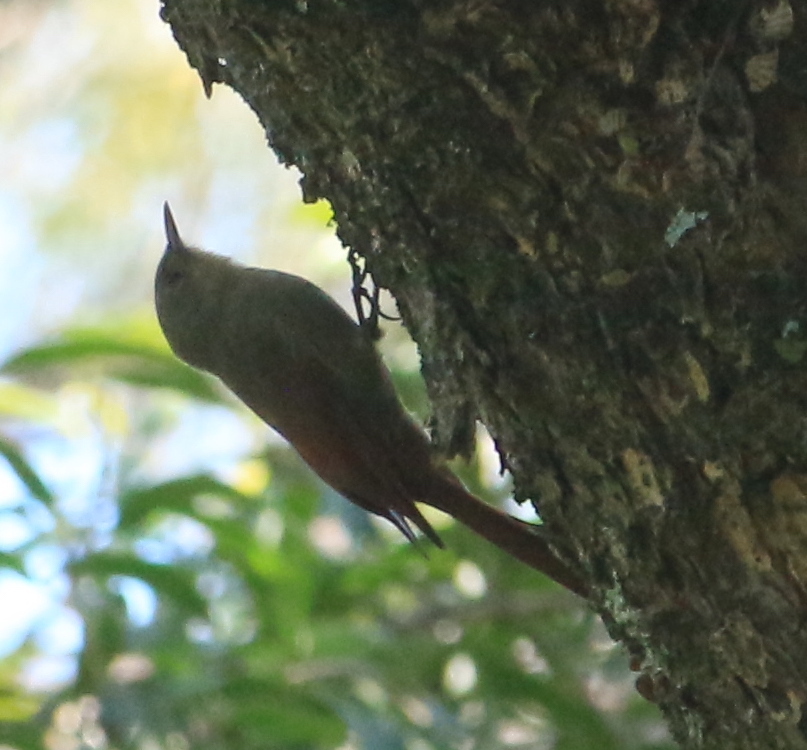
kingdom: Animalia
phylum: Chordata
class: Aves
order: Passeriformes
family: Furnariidae
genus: Sittasomus
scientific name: Sittasomus griseicapillus
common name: Olivaceous woodcreeper
